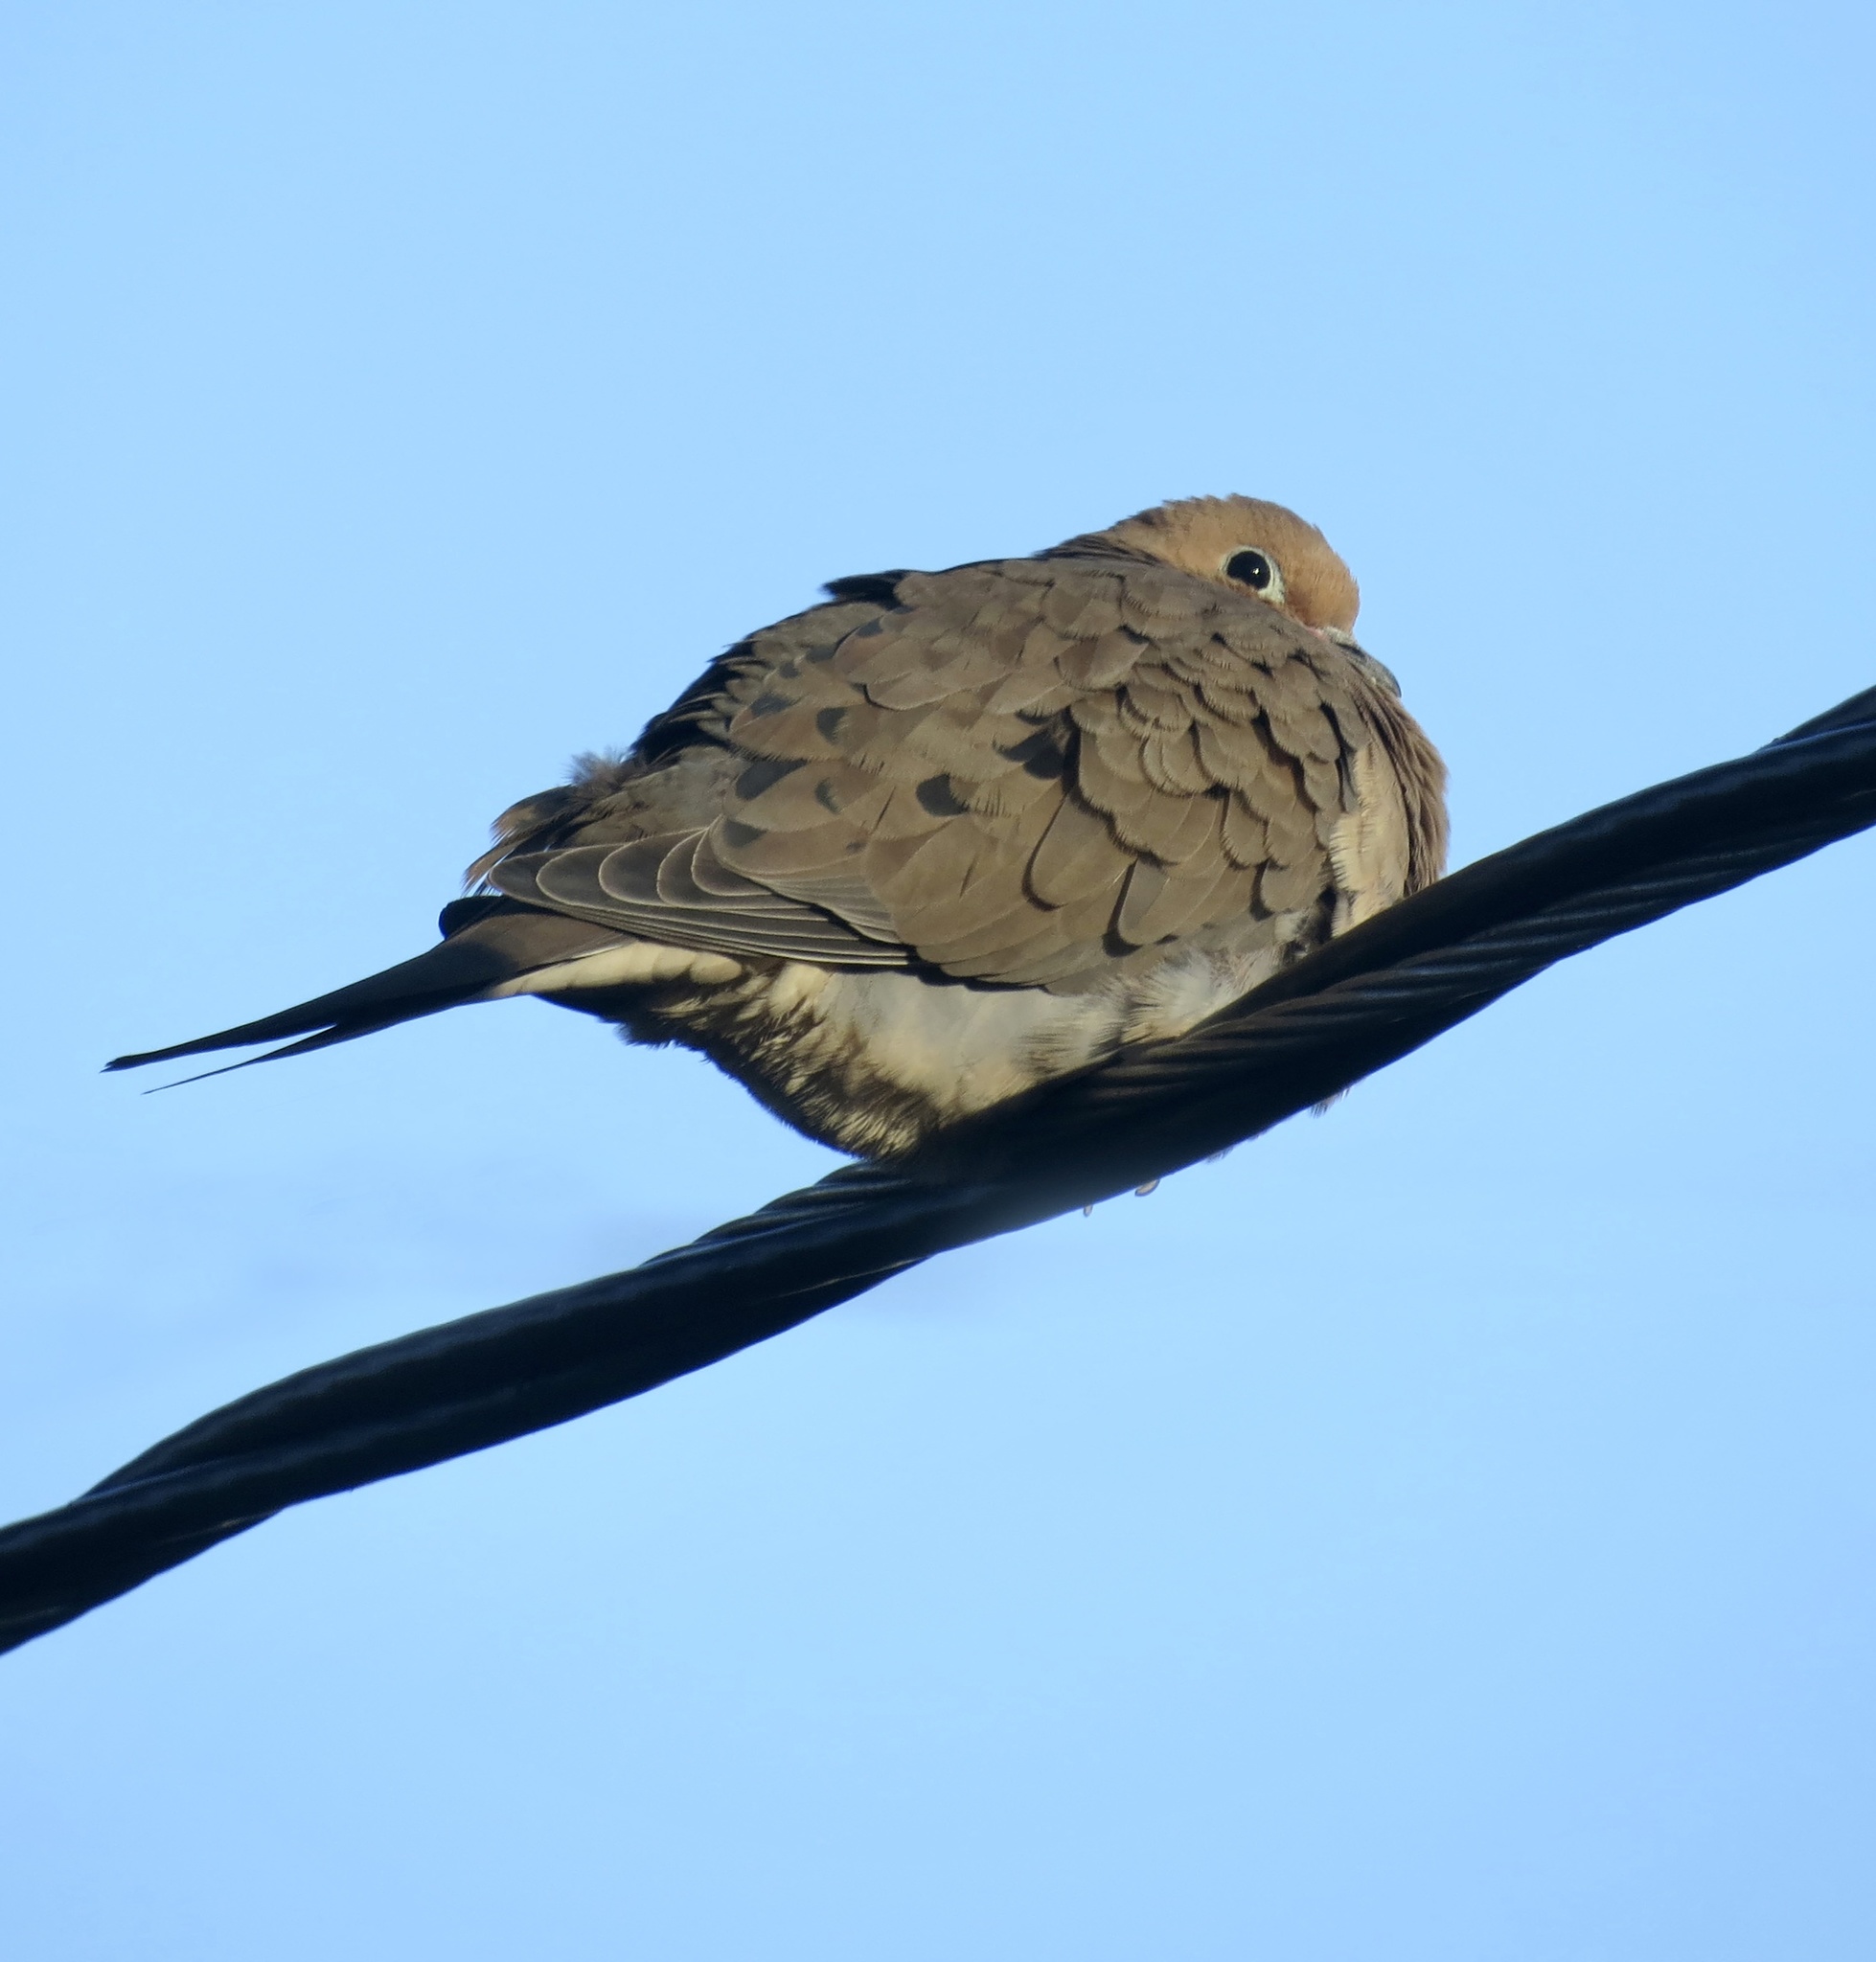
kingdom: Animalia
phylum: Chordata
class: Aves
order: Columbiformes
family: Columbidae
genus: Zenaida
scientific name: Zenaida macroura
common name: Mourning dove
